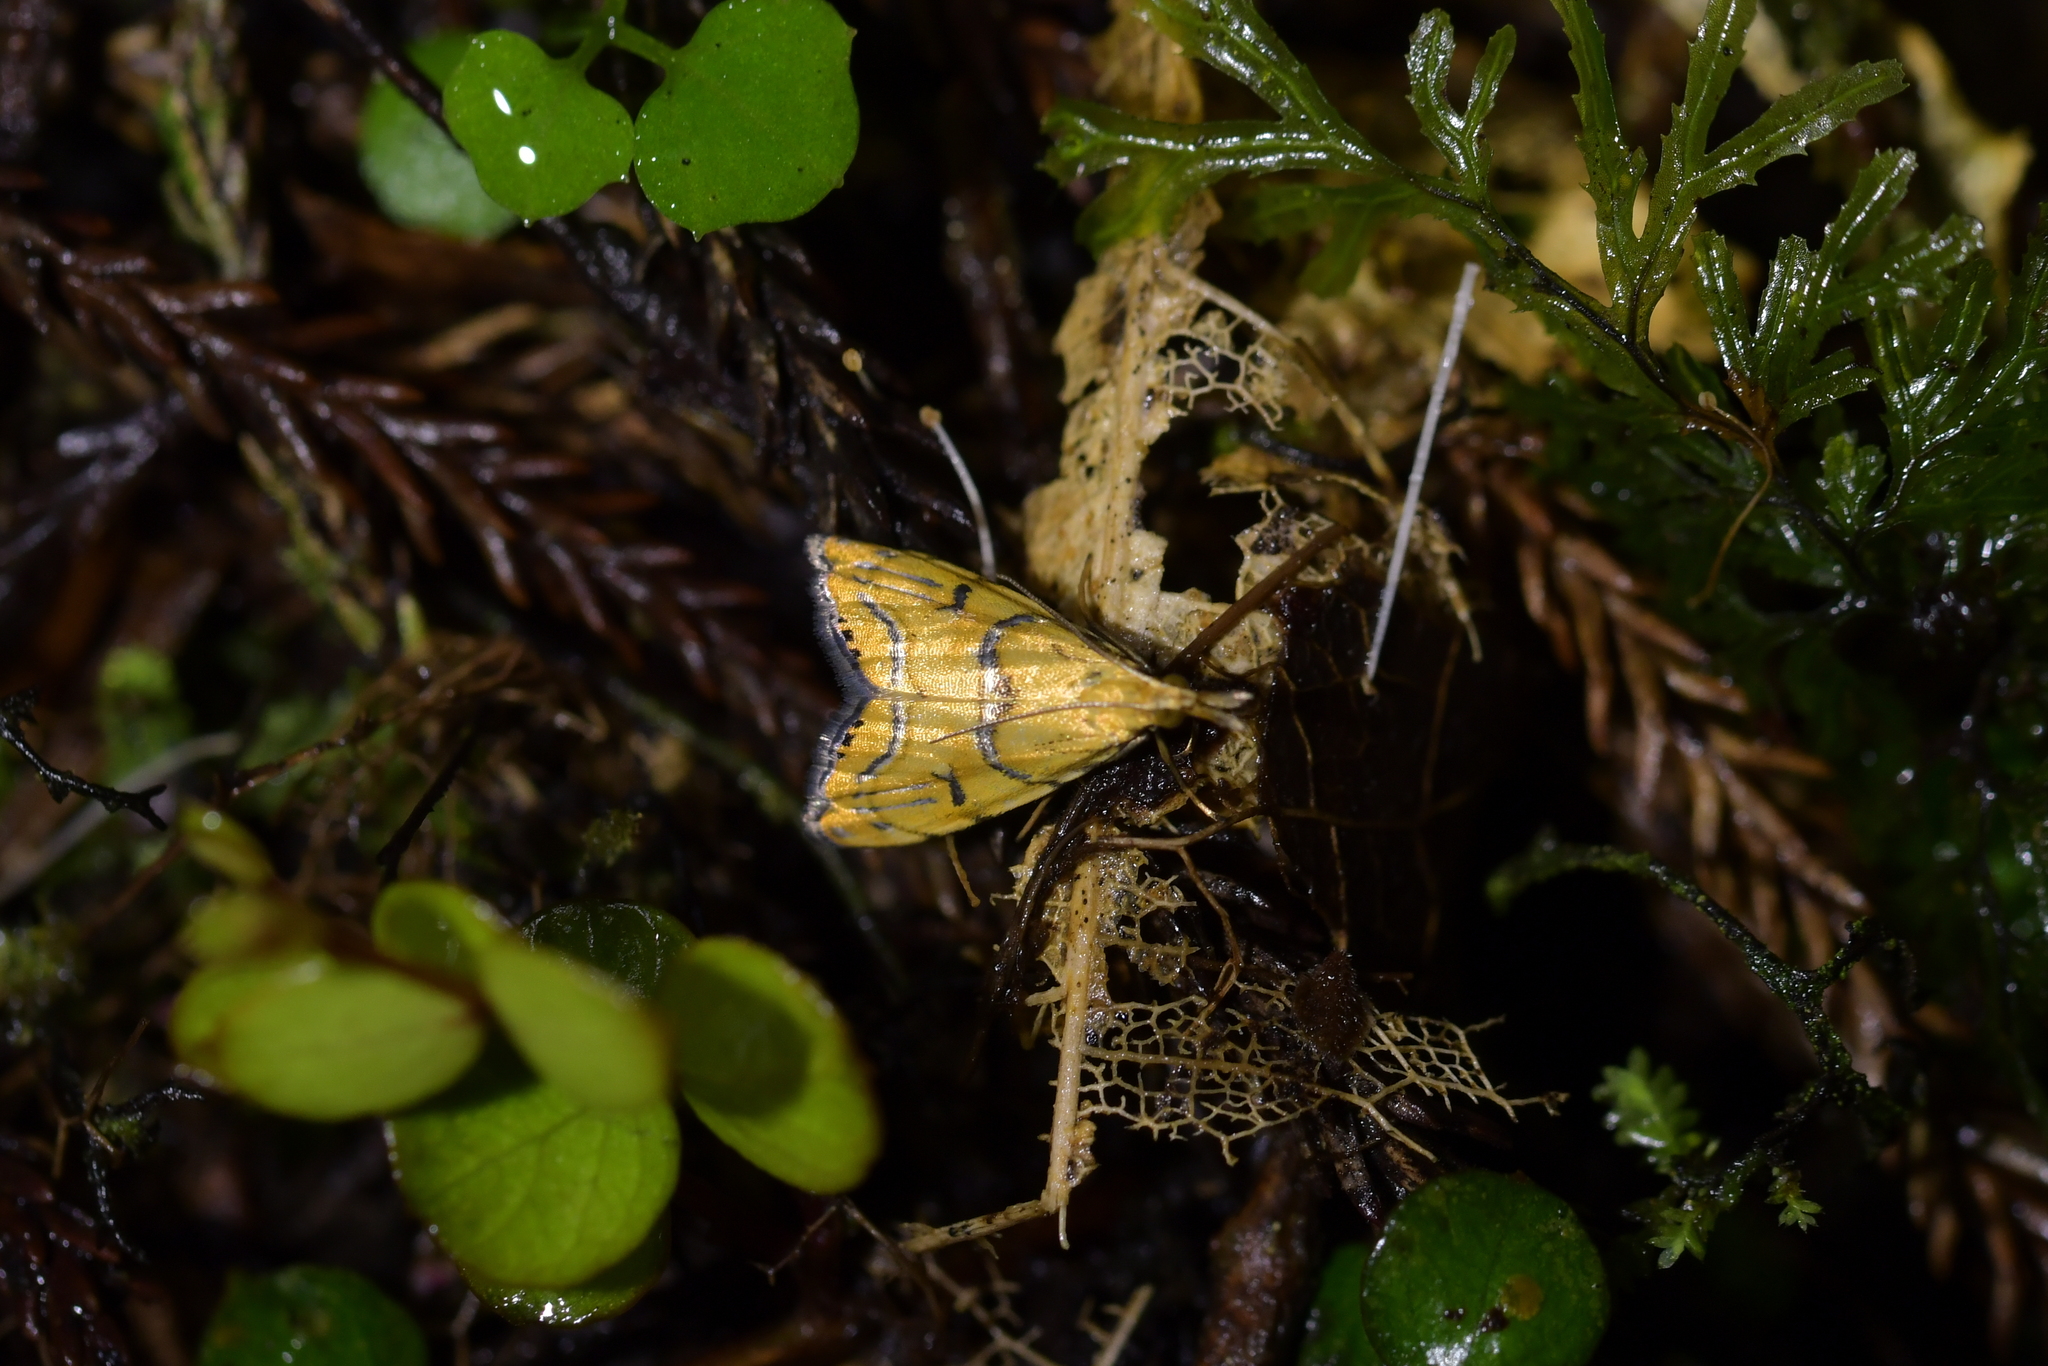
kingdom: Animalia
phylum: Arthropoda
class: Insecta
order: Lepidoptera
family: Crambidae
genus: Glaucocharis
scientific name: Glaucocharis auriscriptella
